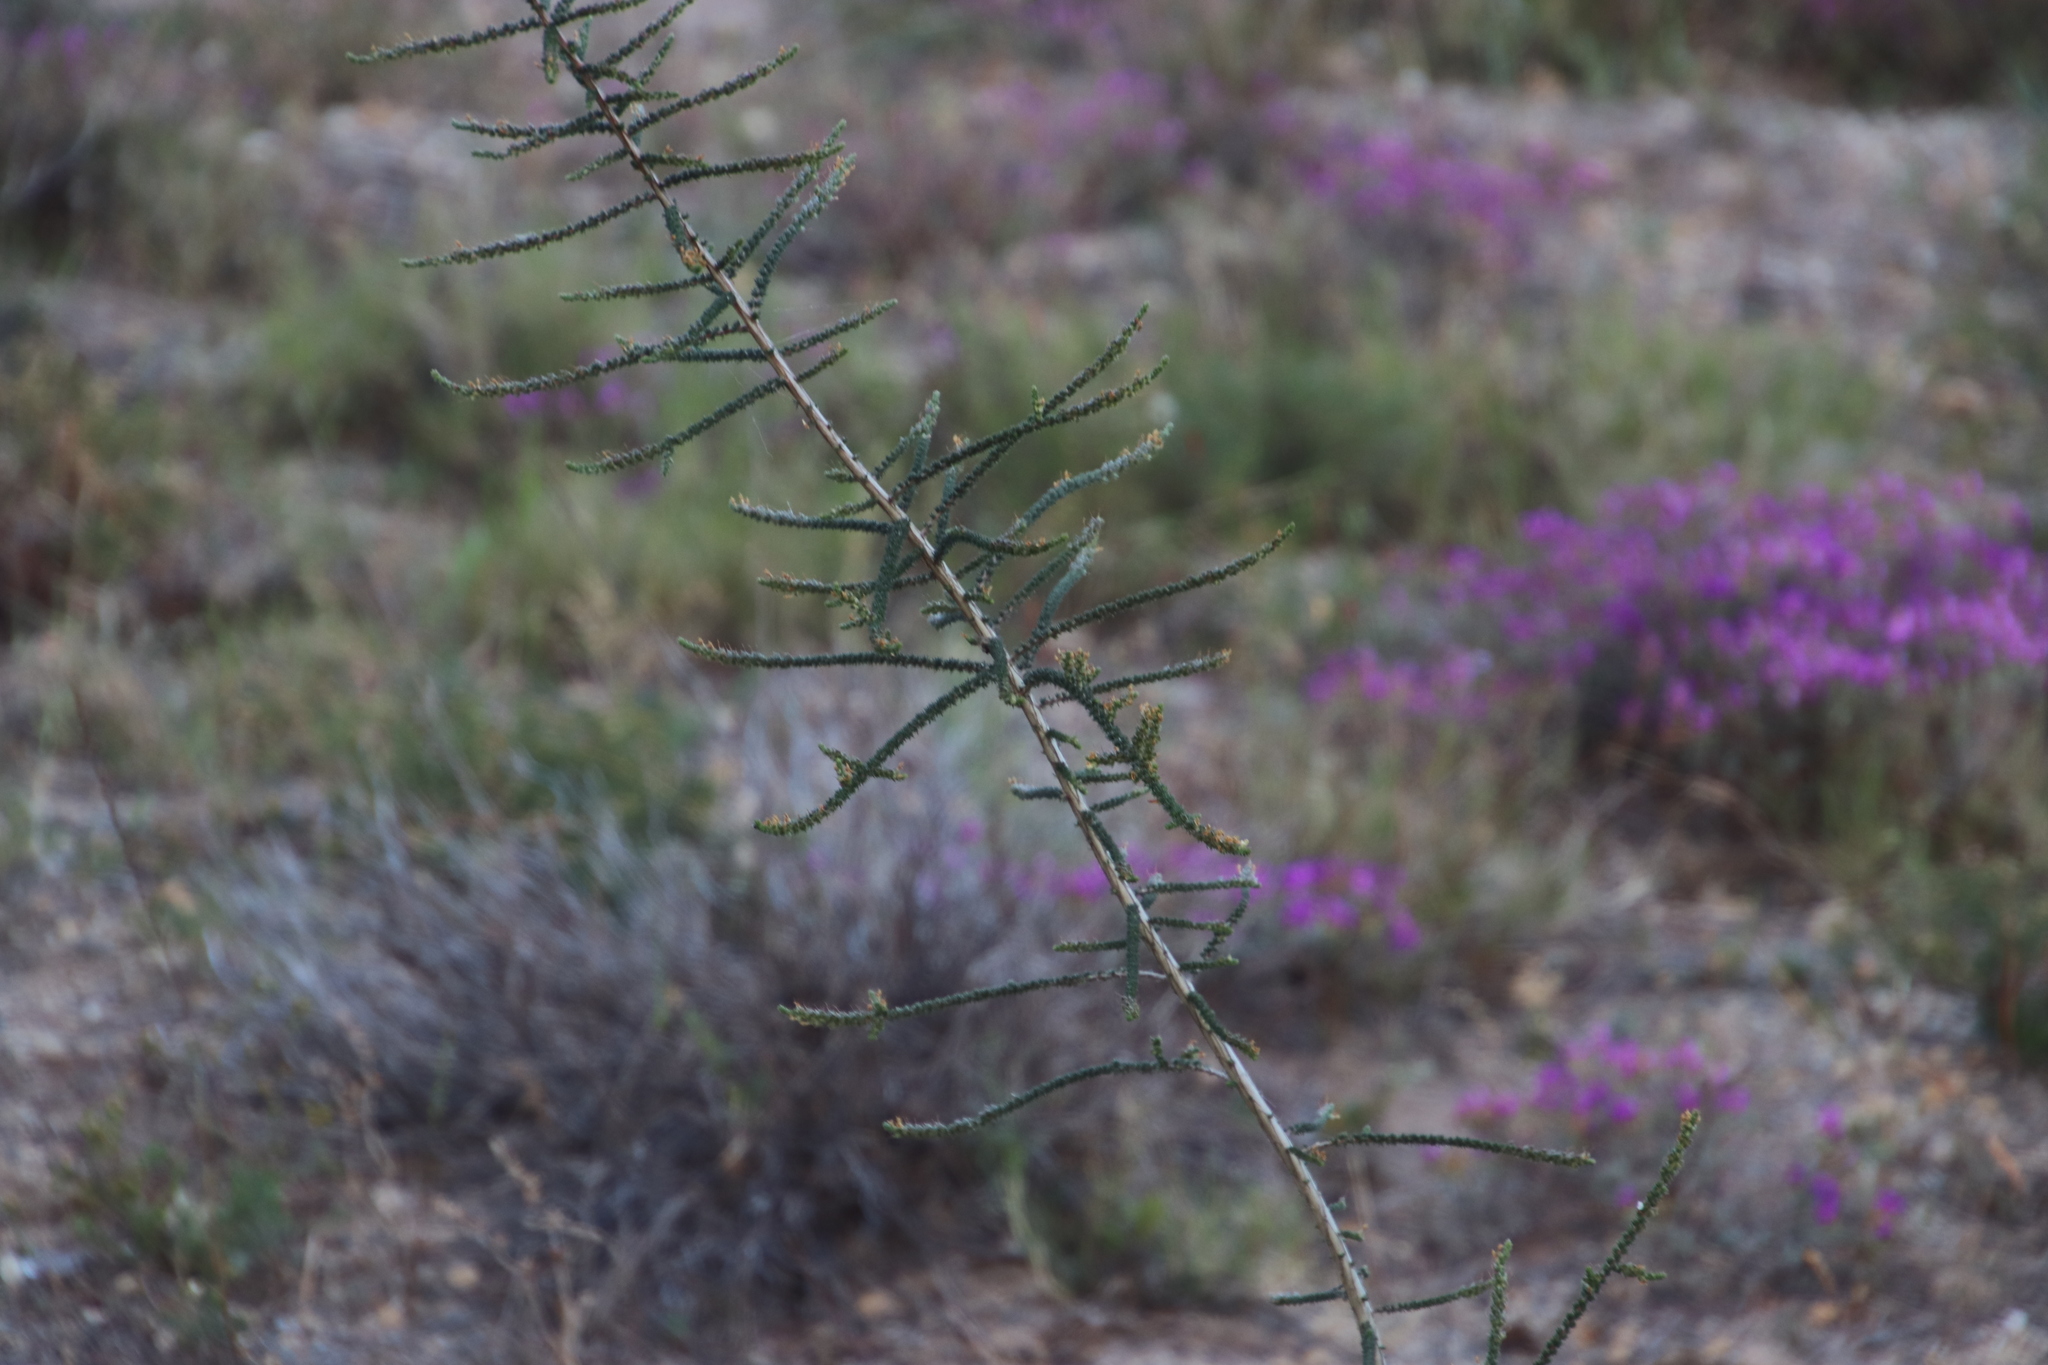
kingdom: Plantae
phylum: Tracheophyta
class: Magnoliopsida
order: Fabales
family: Fabaceae
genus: Aspalathus
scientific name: Aspalathus hispida
